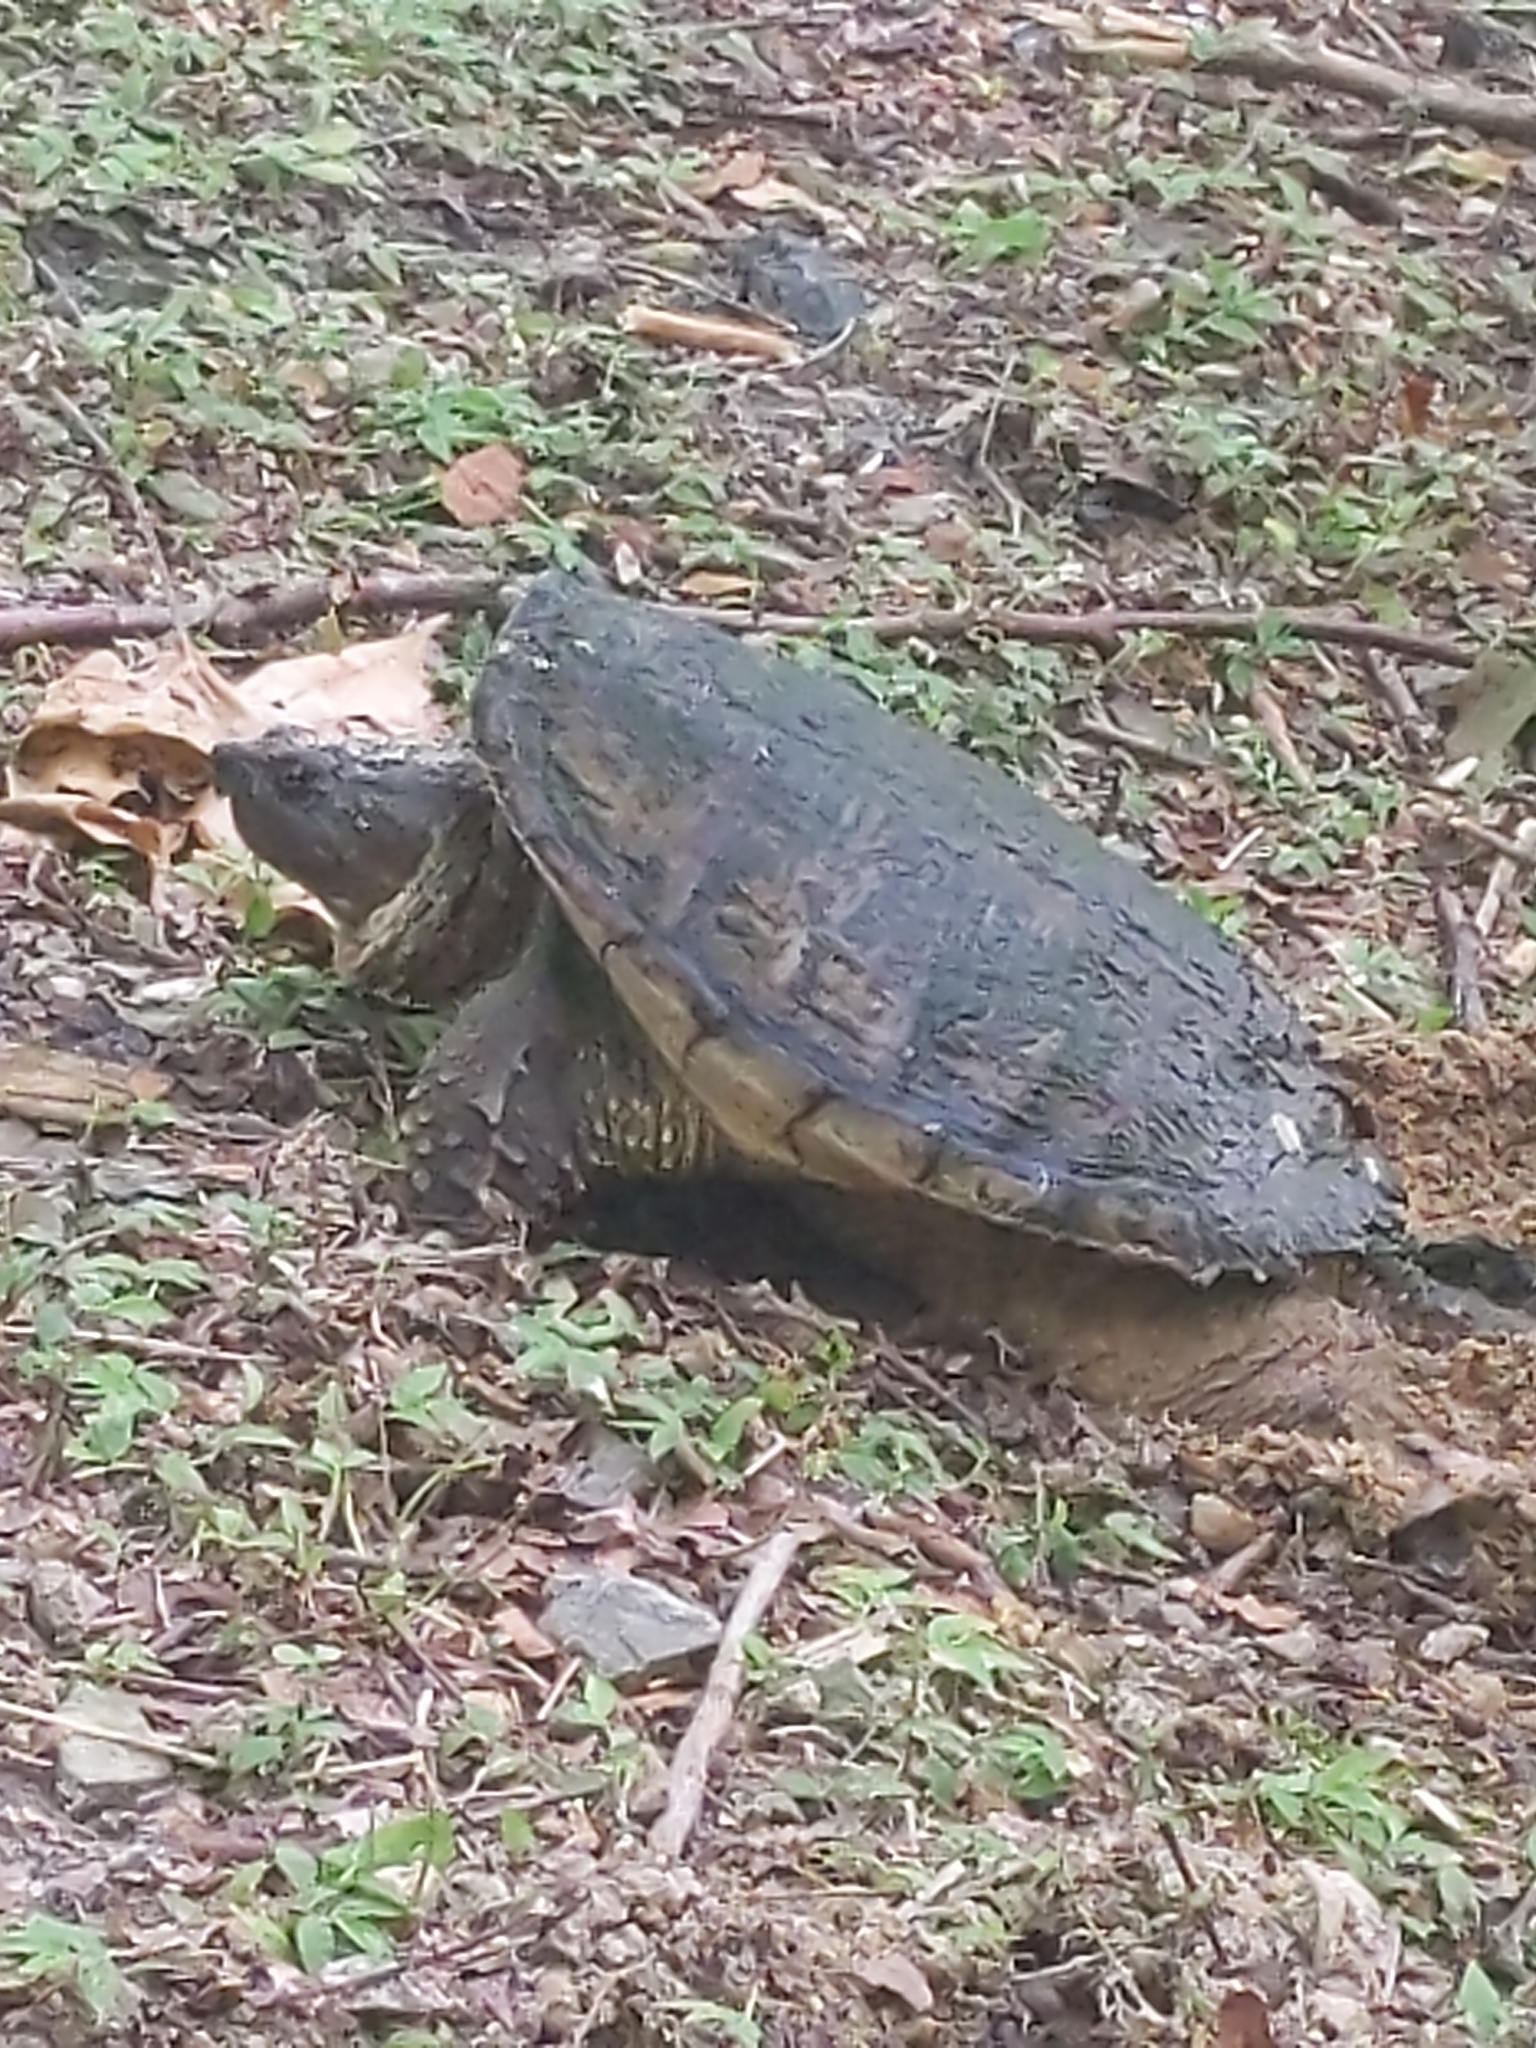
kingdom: Animalia
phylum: Chordata
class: Testudines
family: Chelydridae
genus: Chelydra
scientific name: Chelydra serpentina
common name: Common snapping turtle
